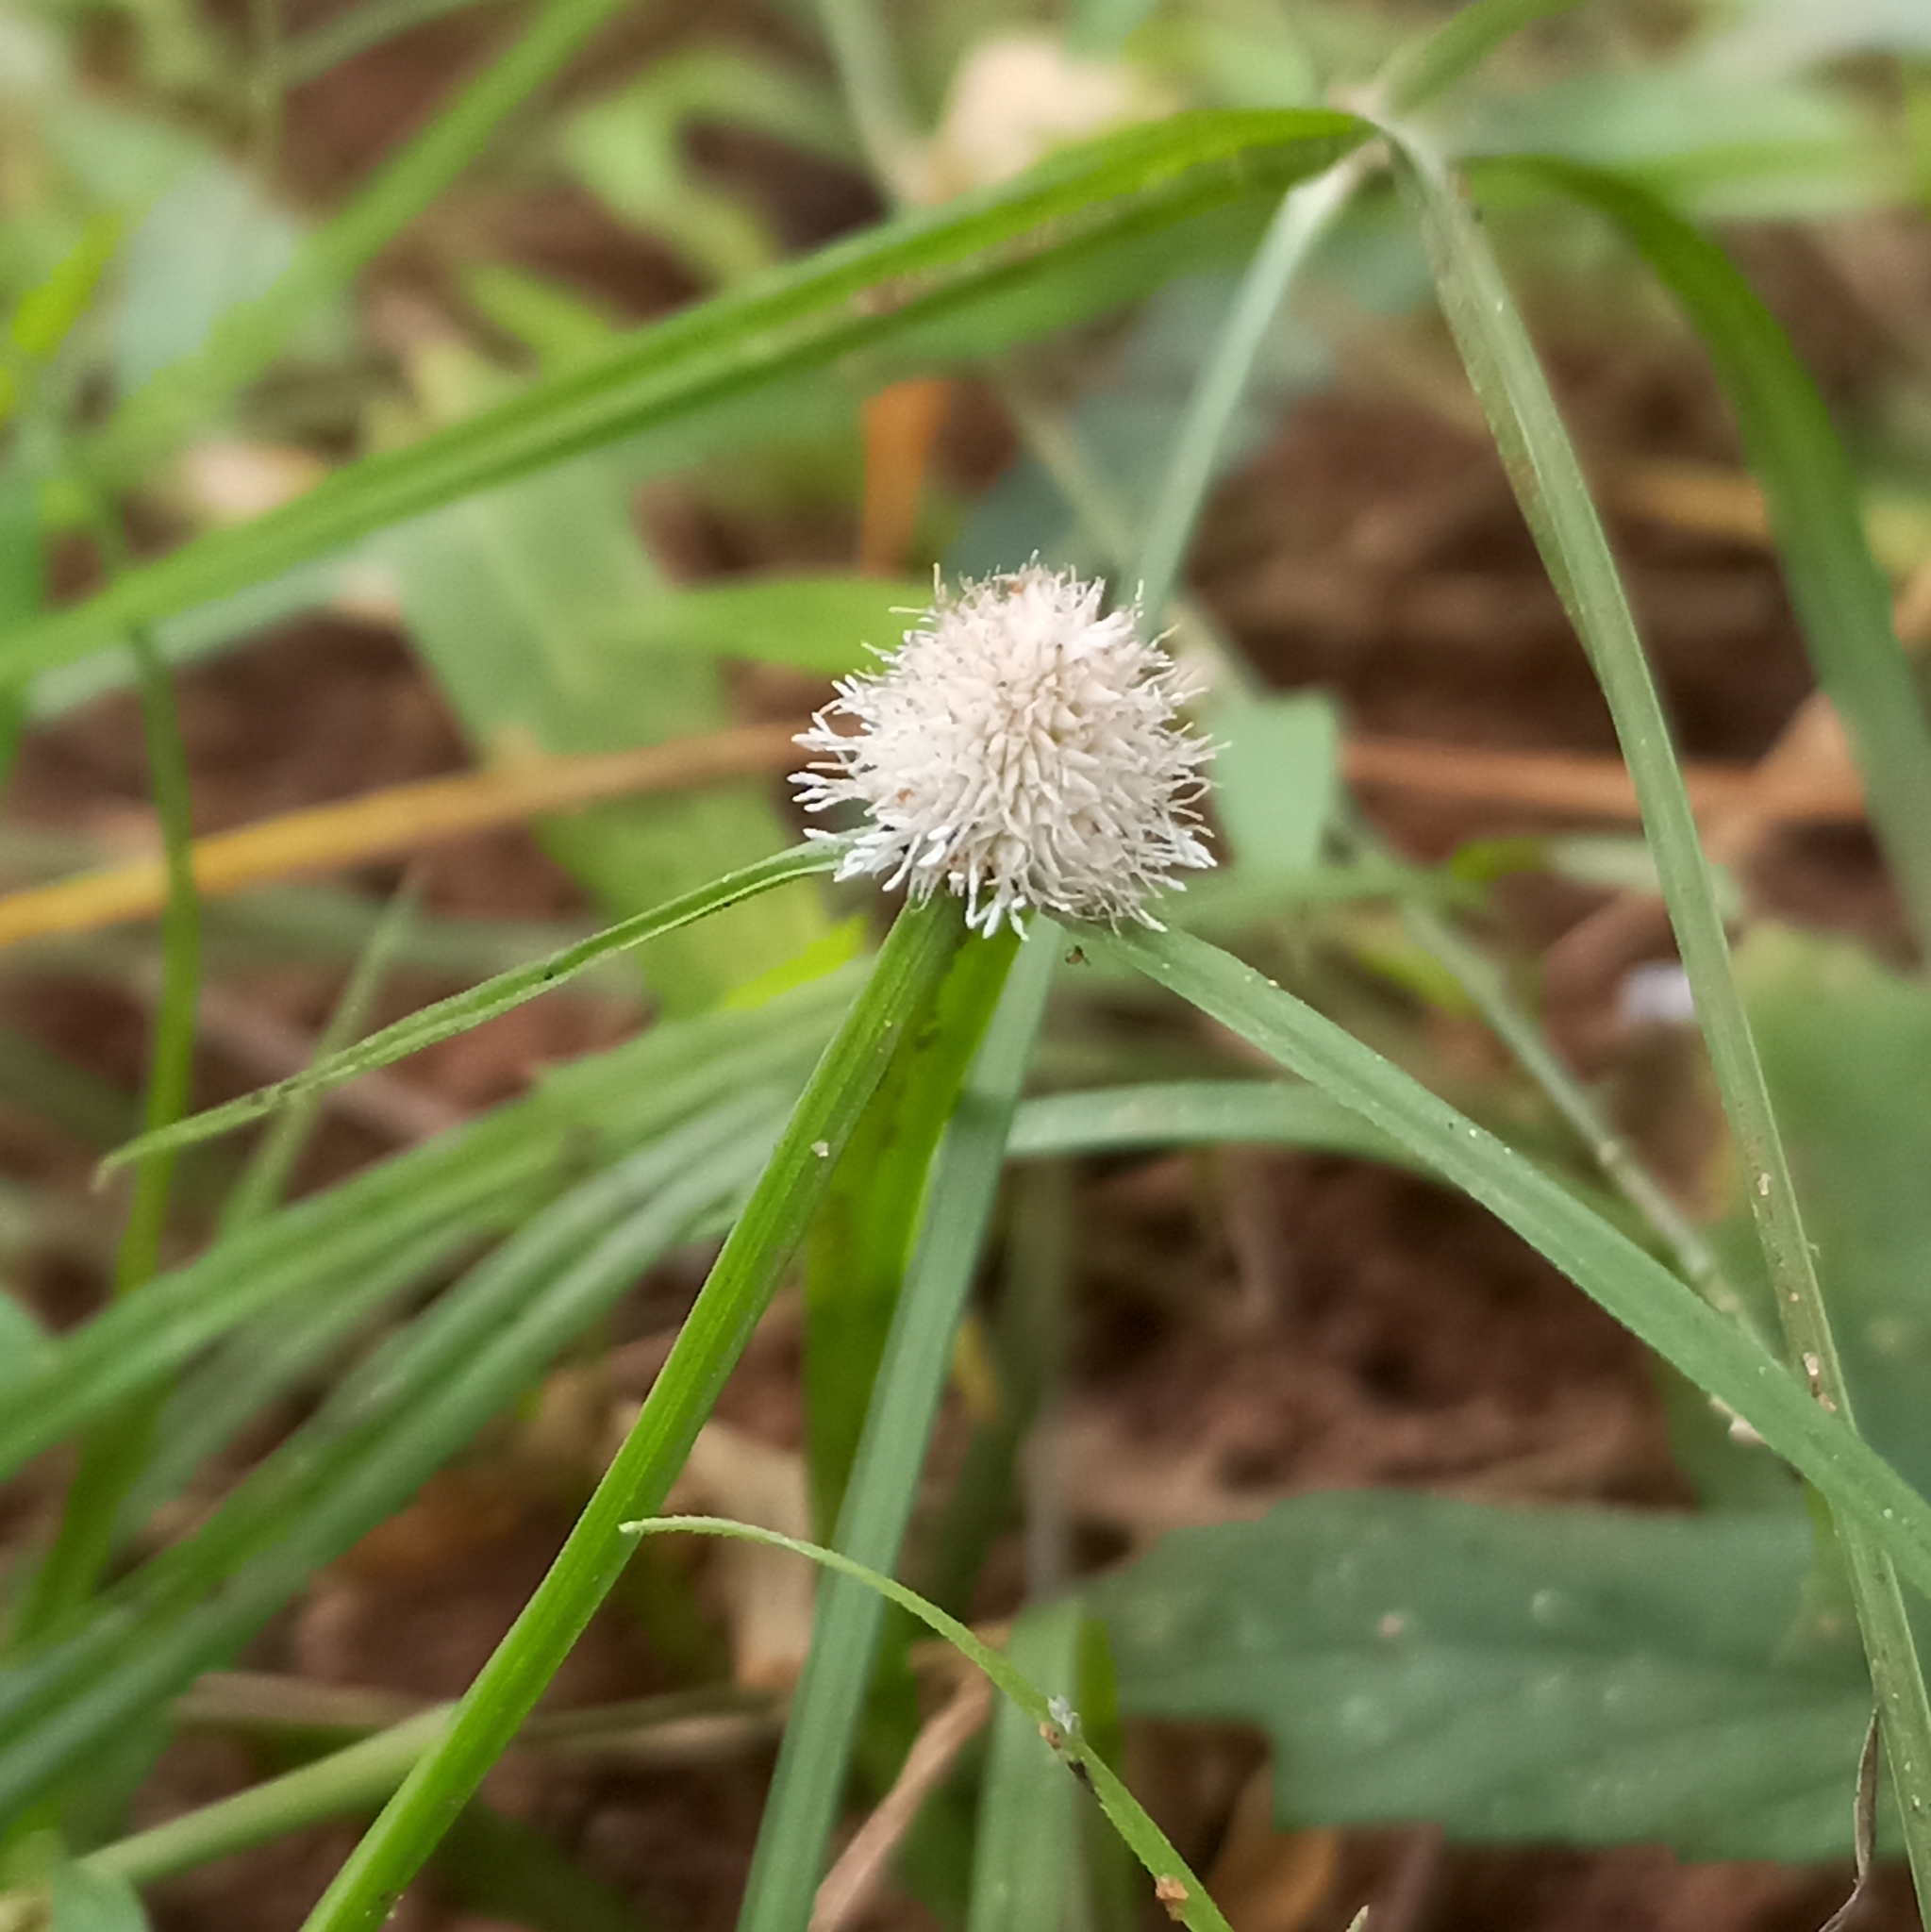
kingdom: Plantae
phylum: Tracheophyta
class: Liliopsida
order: Poales
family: Cyperaceae
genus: Cyperus
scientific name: Cyperus mindorensis
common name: Flatsedge
